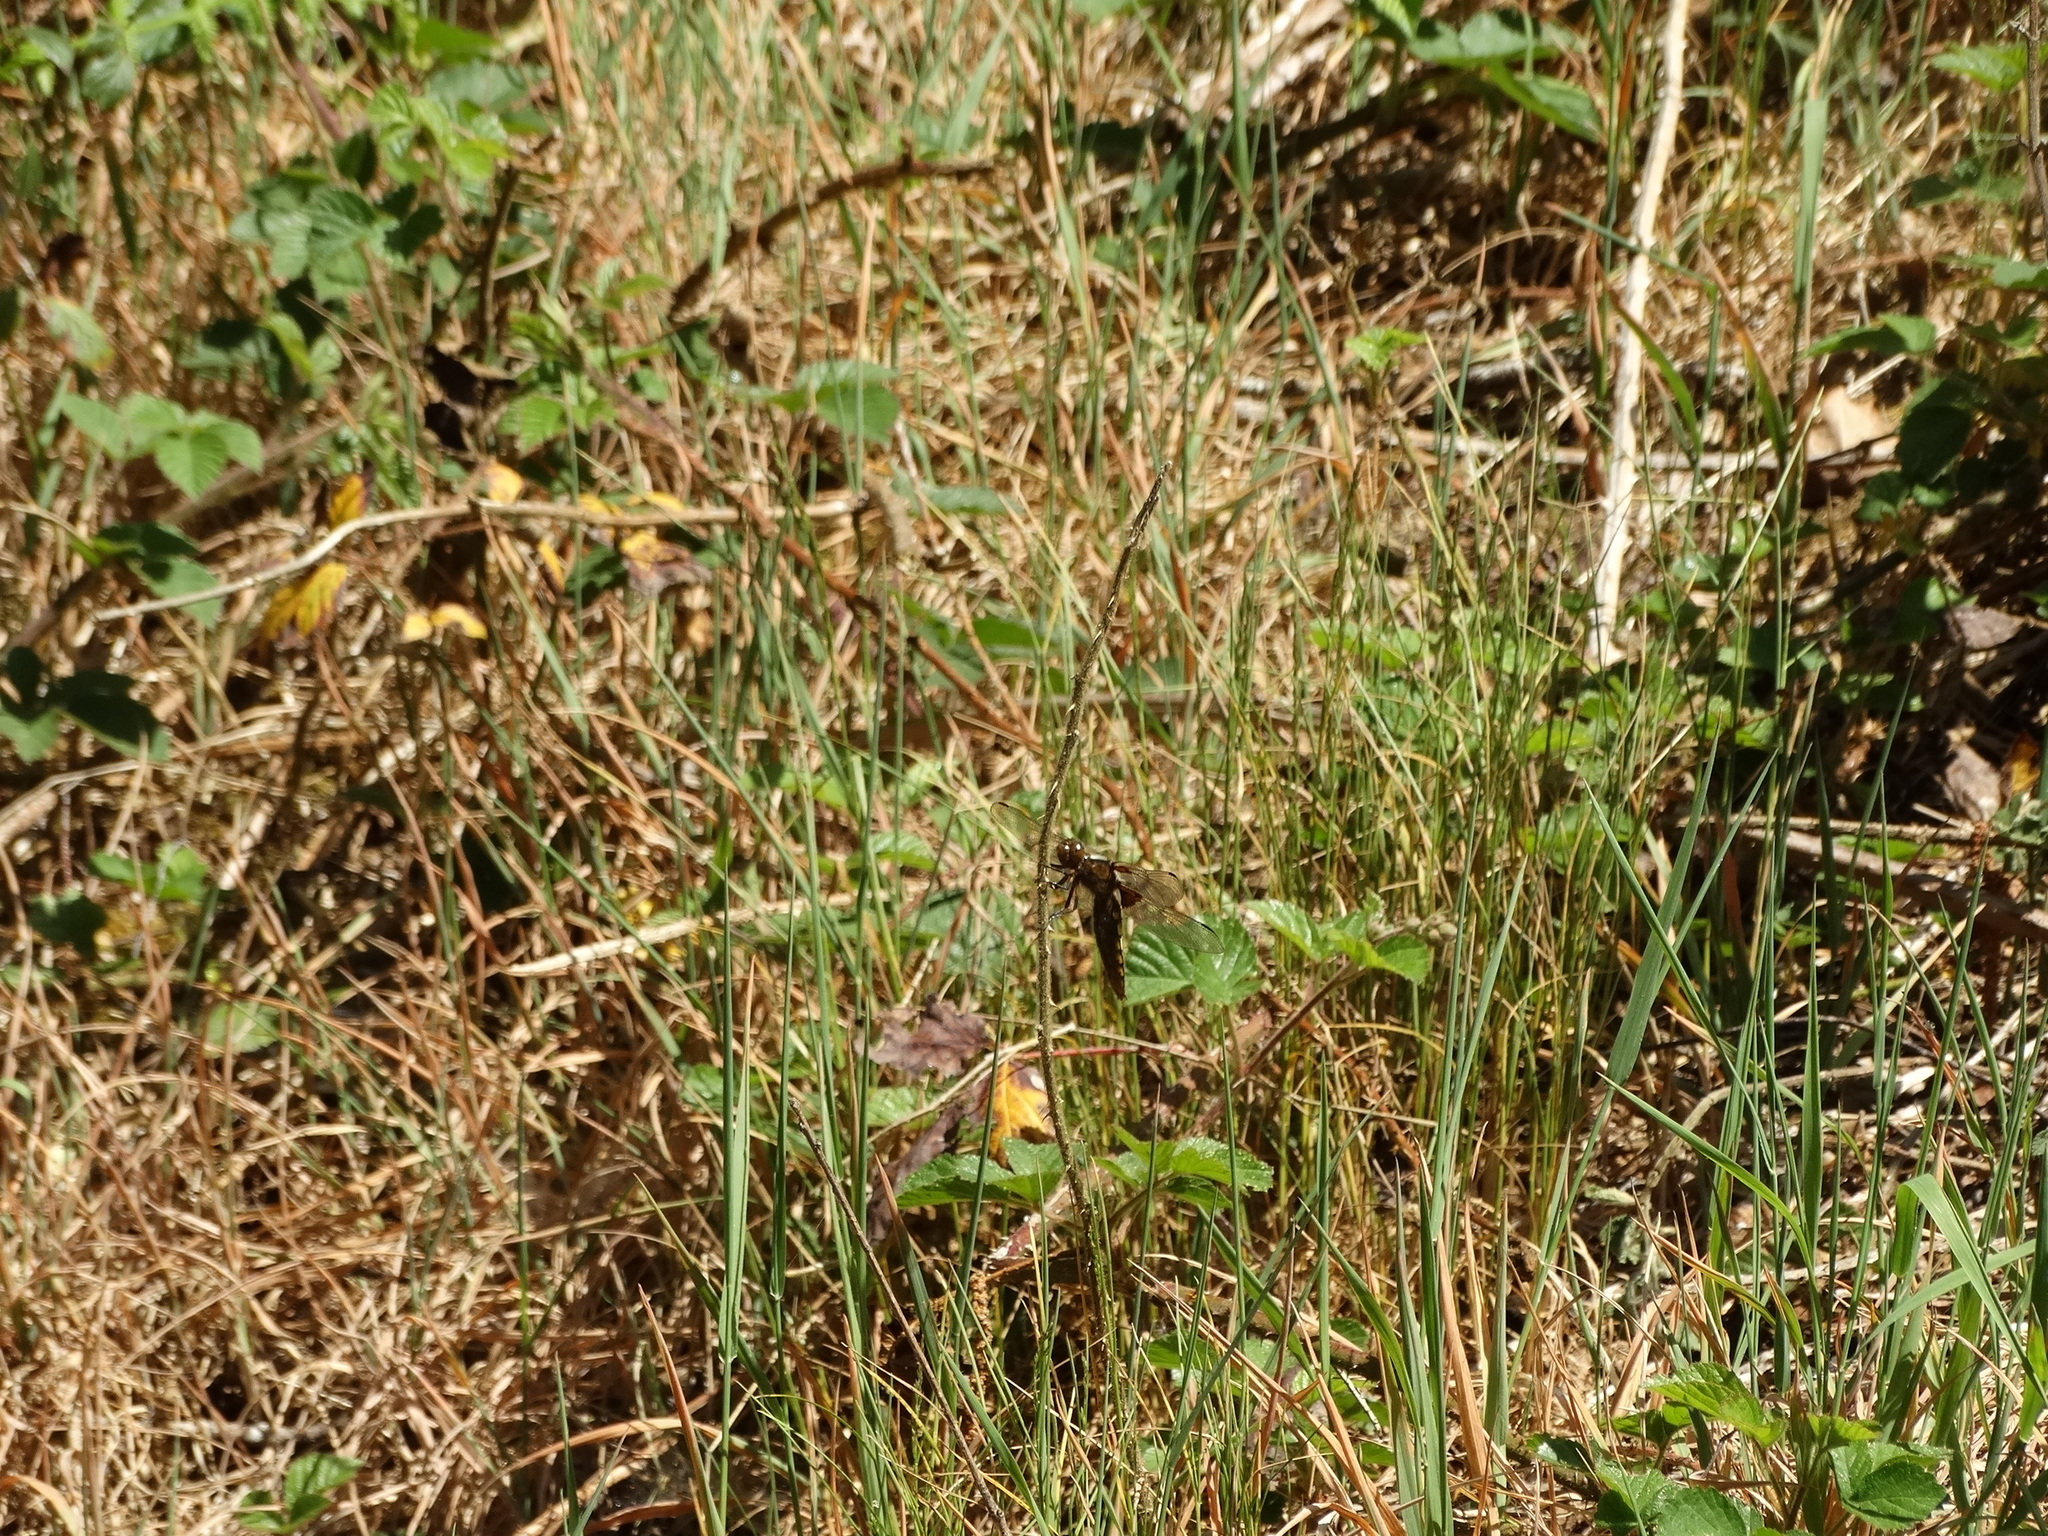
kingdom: Animalia
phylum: Arthropoda
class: Insecta
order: Odonata
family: Libellulidae
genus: Libellula
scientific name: Libellula depressa
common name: Broad-bodied chaser
